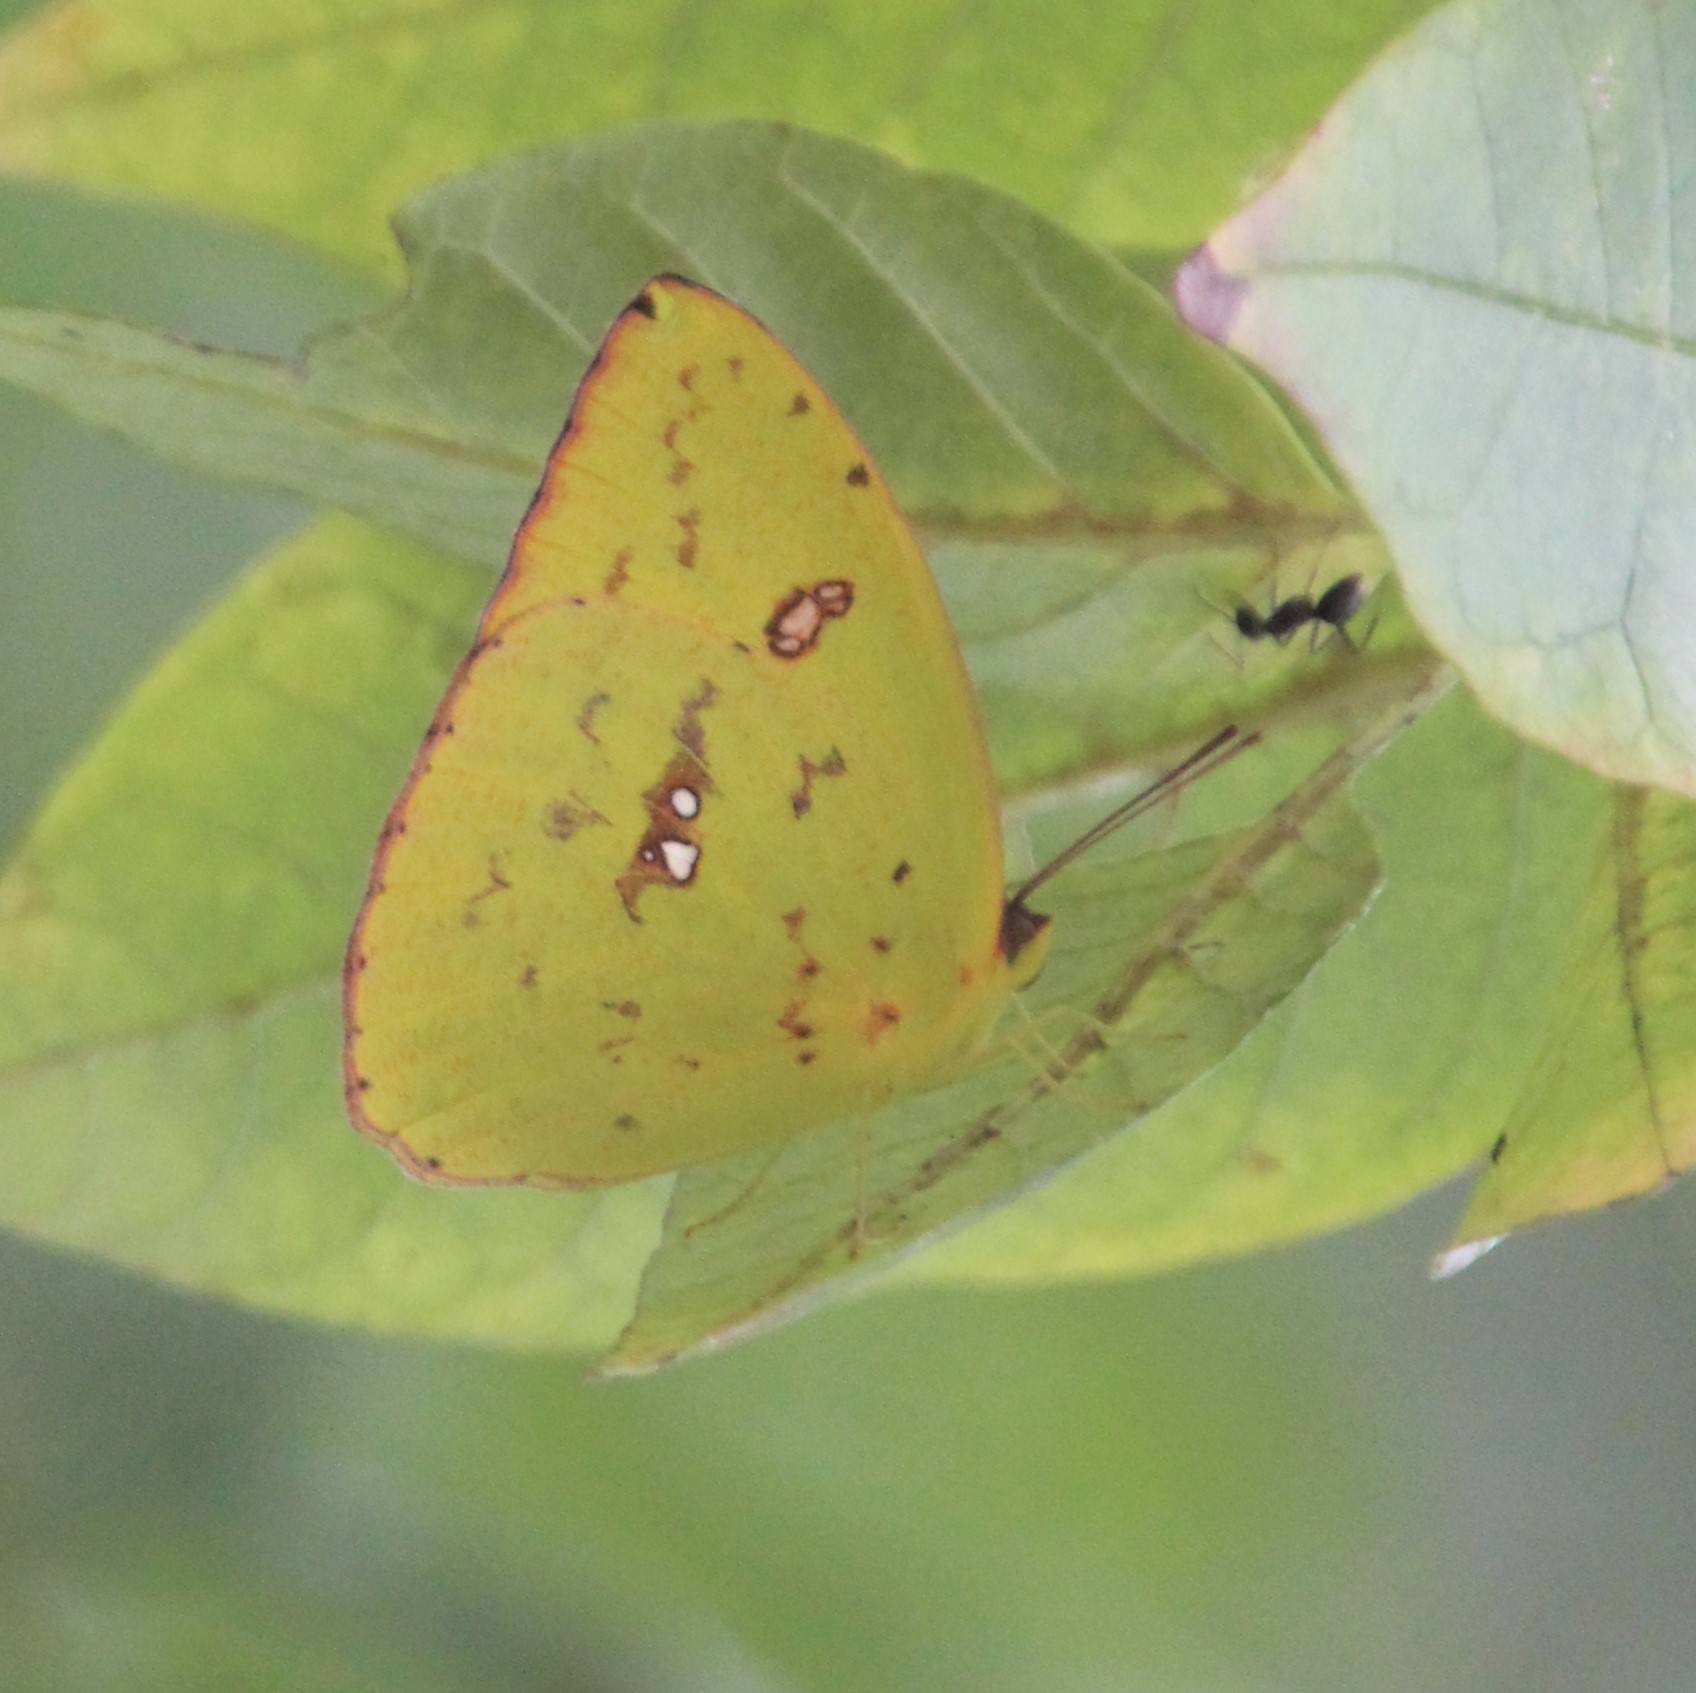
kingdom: Animalia
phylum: Arthropoda
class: Insecta
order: Lepidoptera
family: Pieridae
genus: Phoebis
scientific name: Phoebis sennae
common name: Cloudless sulphur
